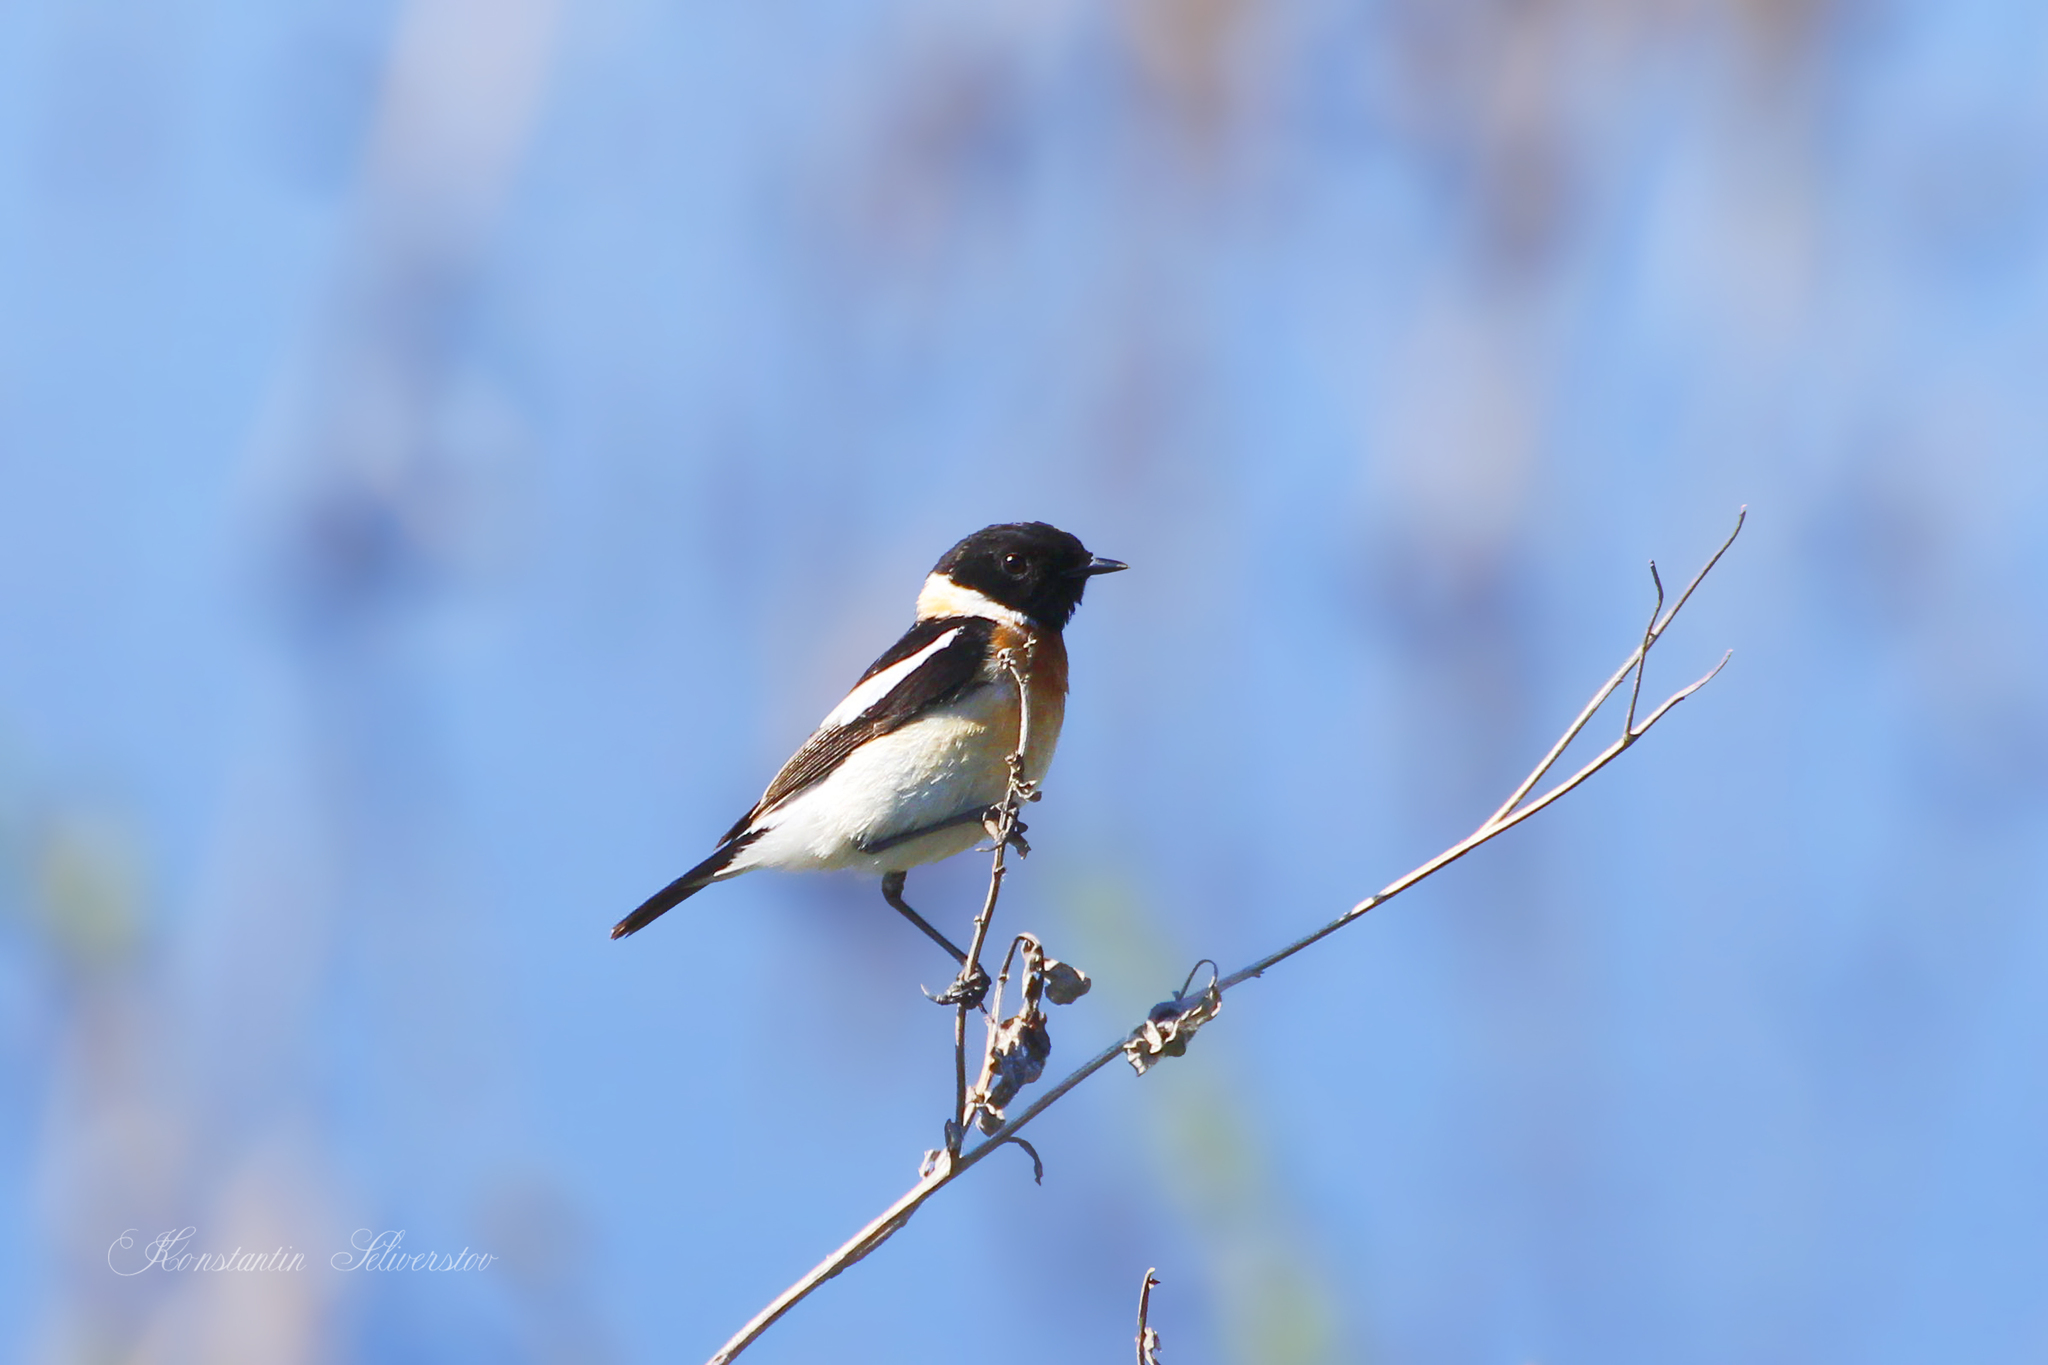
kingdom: Animalia
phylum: Chordata
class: Aves
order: Passeriformes
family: Muscicapidae
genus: Saxicola
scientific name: Saxicola maurus
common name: Siberian stonechat
